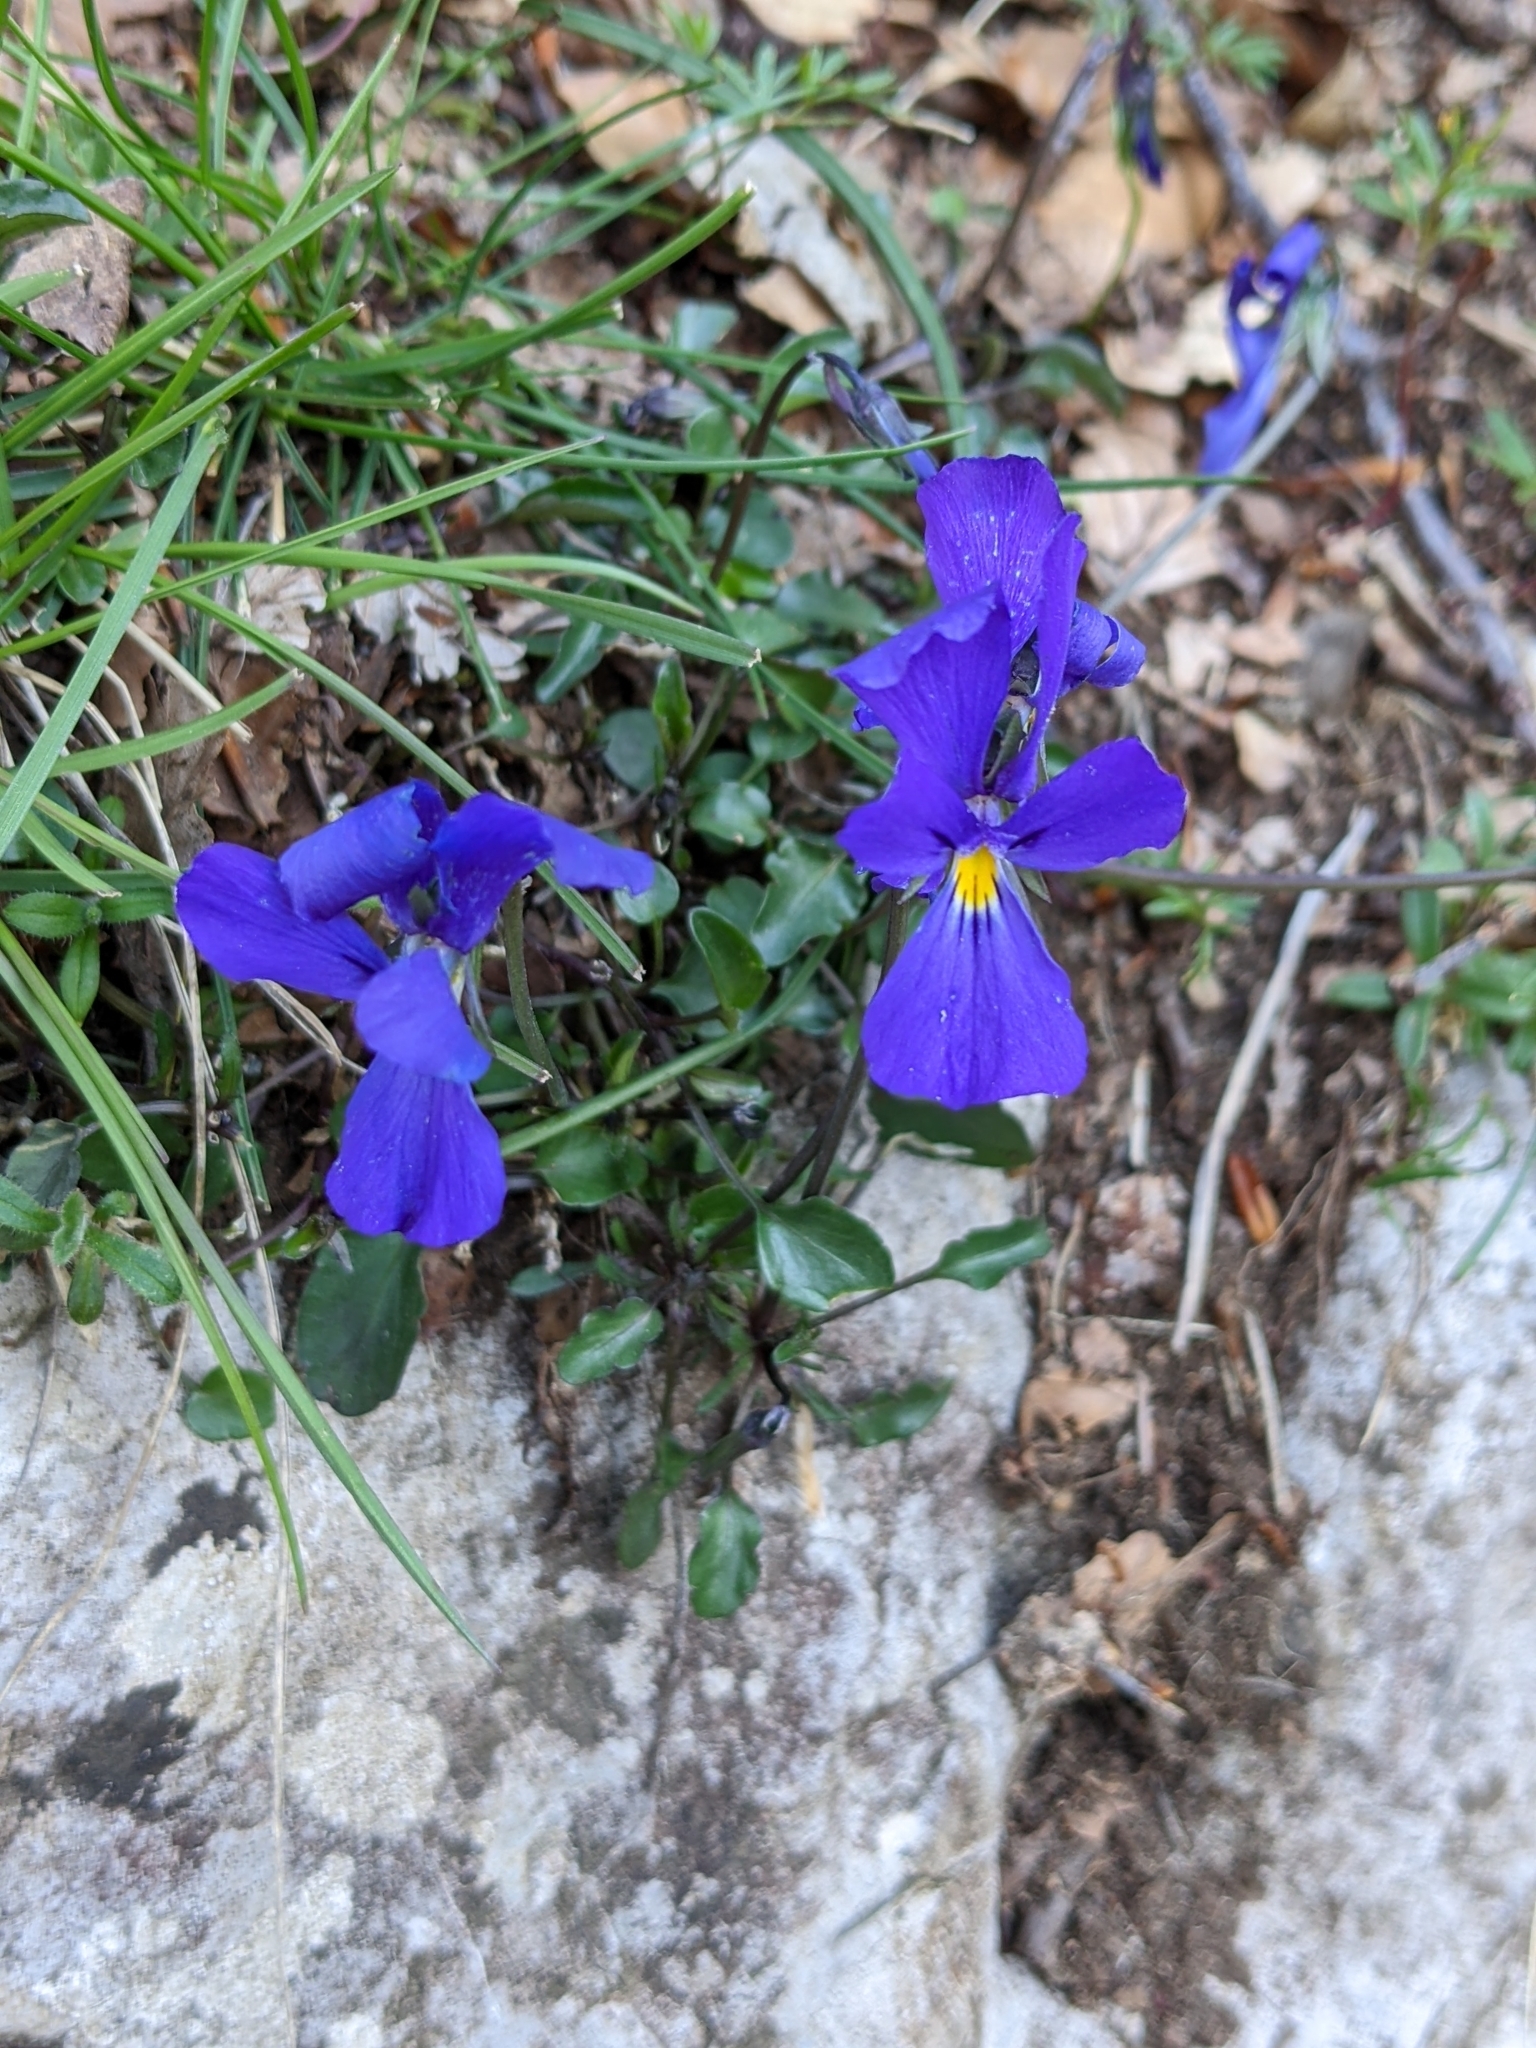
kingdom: Plantae
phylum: Tracheophyta
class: Magnoliopsida
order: Malpighiales
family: Violaceae
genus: Viola
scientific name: Viola eugeniae
